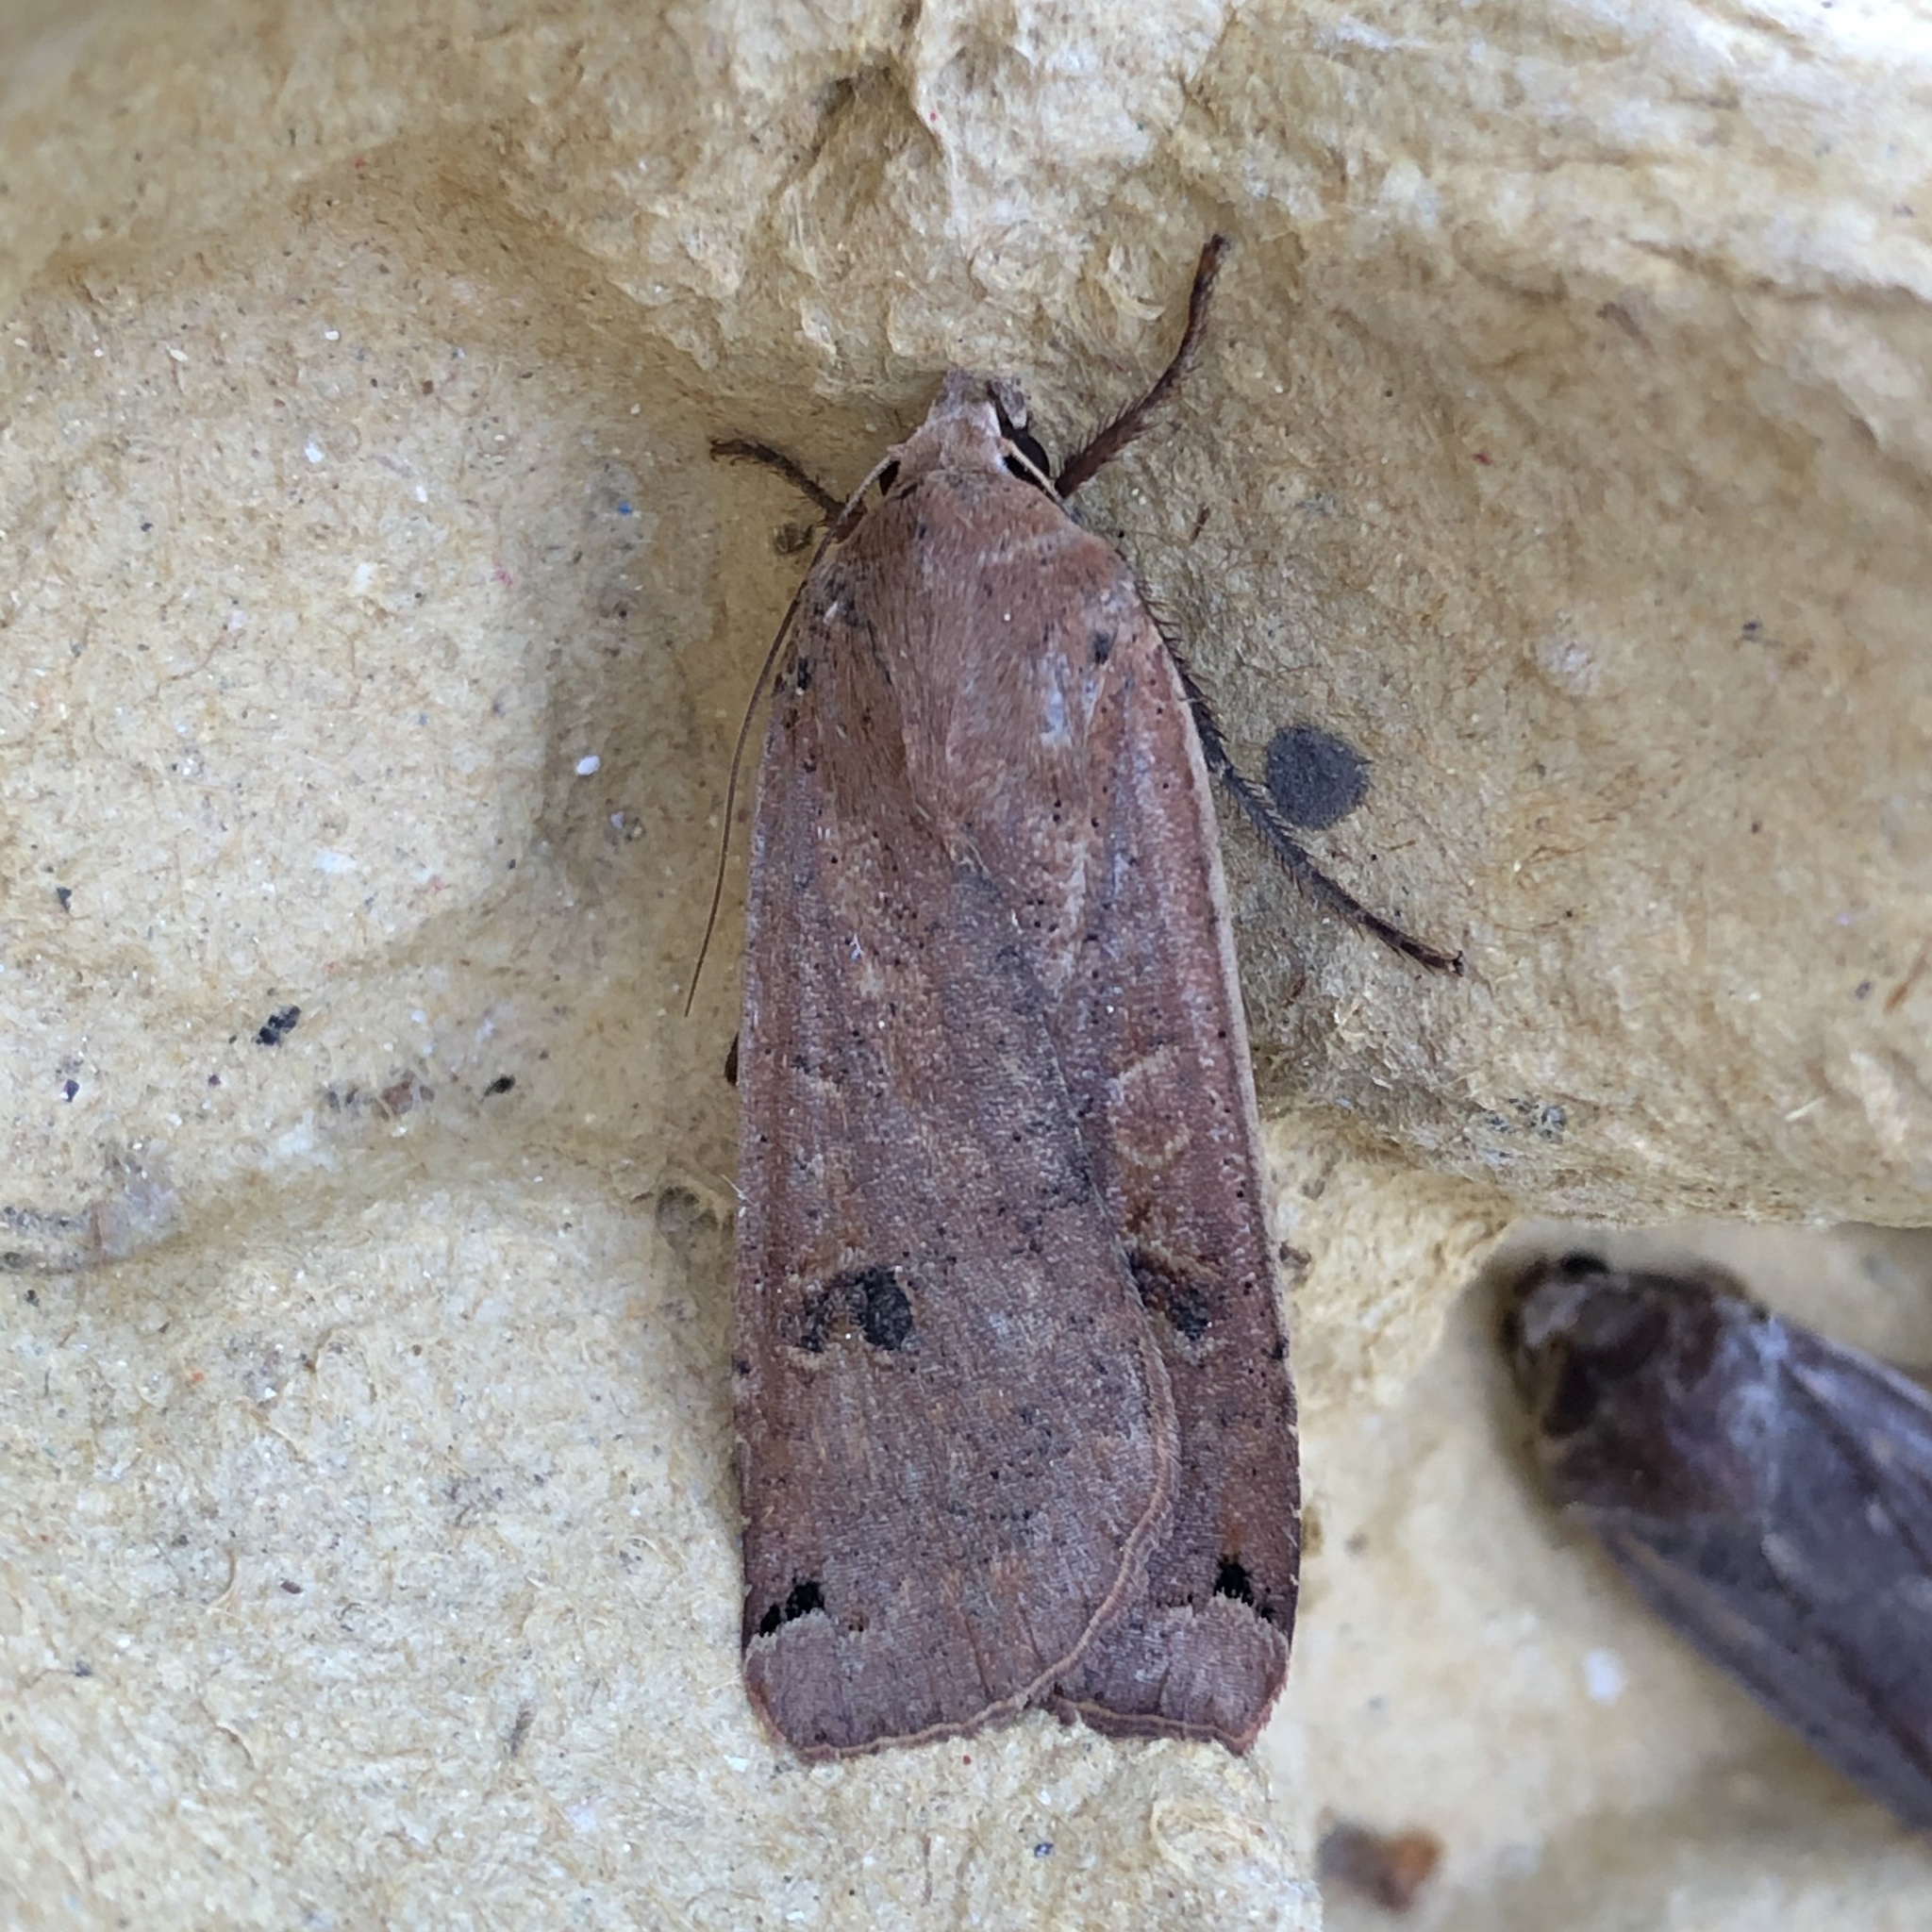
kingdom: Animalia
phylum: Arthropoda
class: Insecta
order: Lepidoptera
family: Noctuidae
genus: Noctua
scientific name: Noctua pronuba
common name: Large yellow underwing
